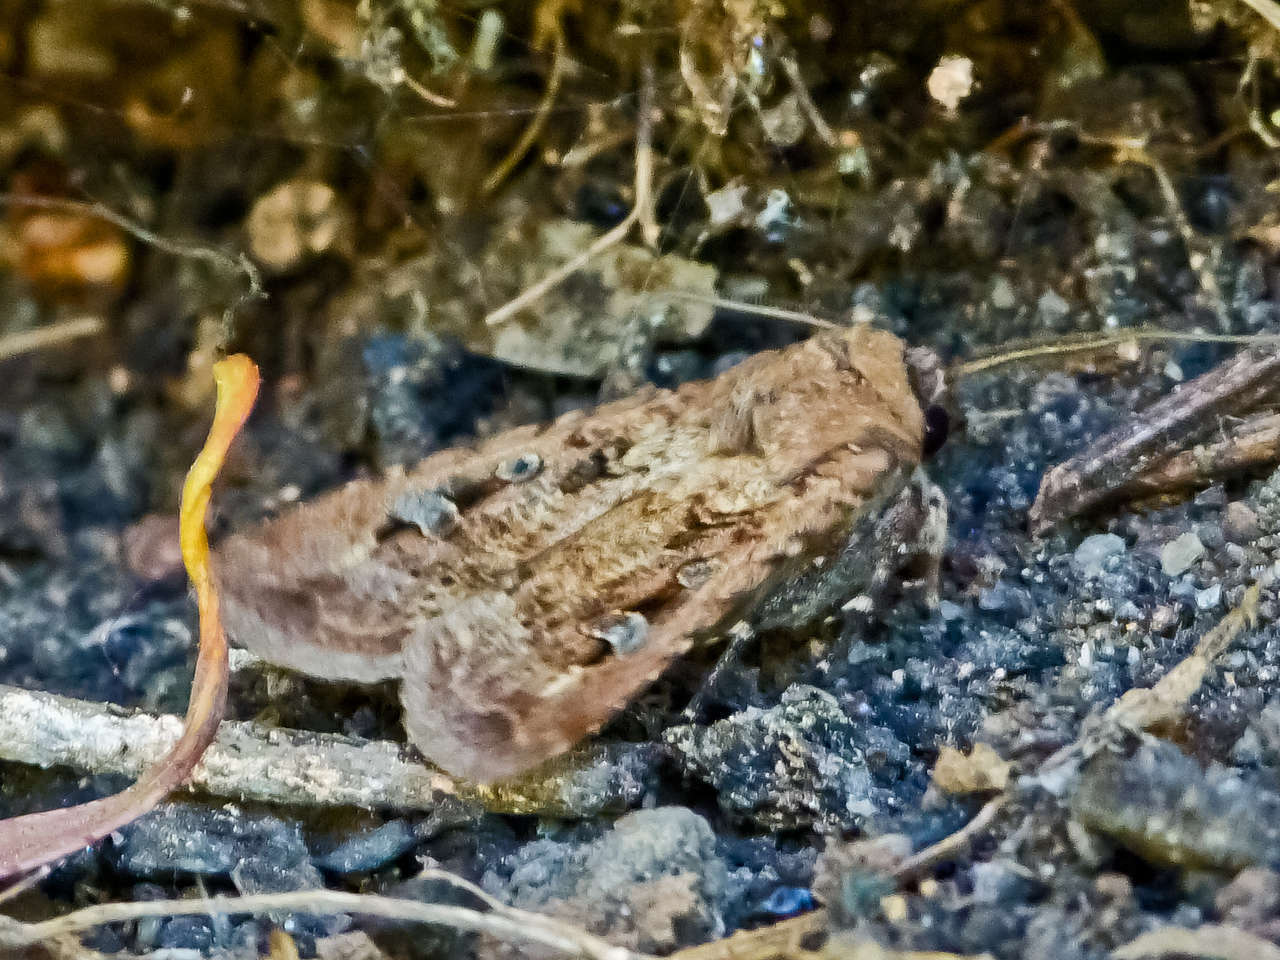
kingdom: Animalia
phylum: Arthropoda
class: Insecta
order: Lepidoptera
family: Noctuidae
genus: Agrotis
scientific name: Agrotis infusa
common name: Bogong moth
